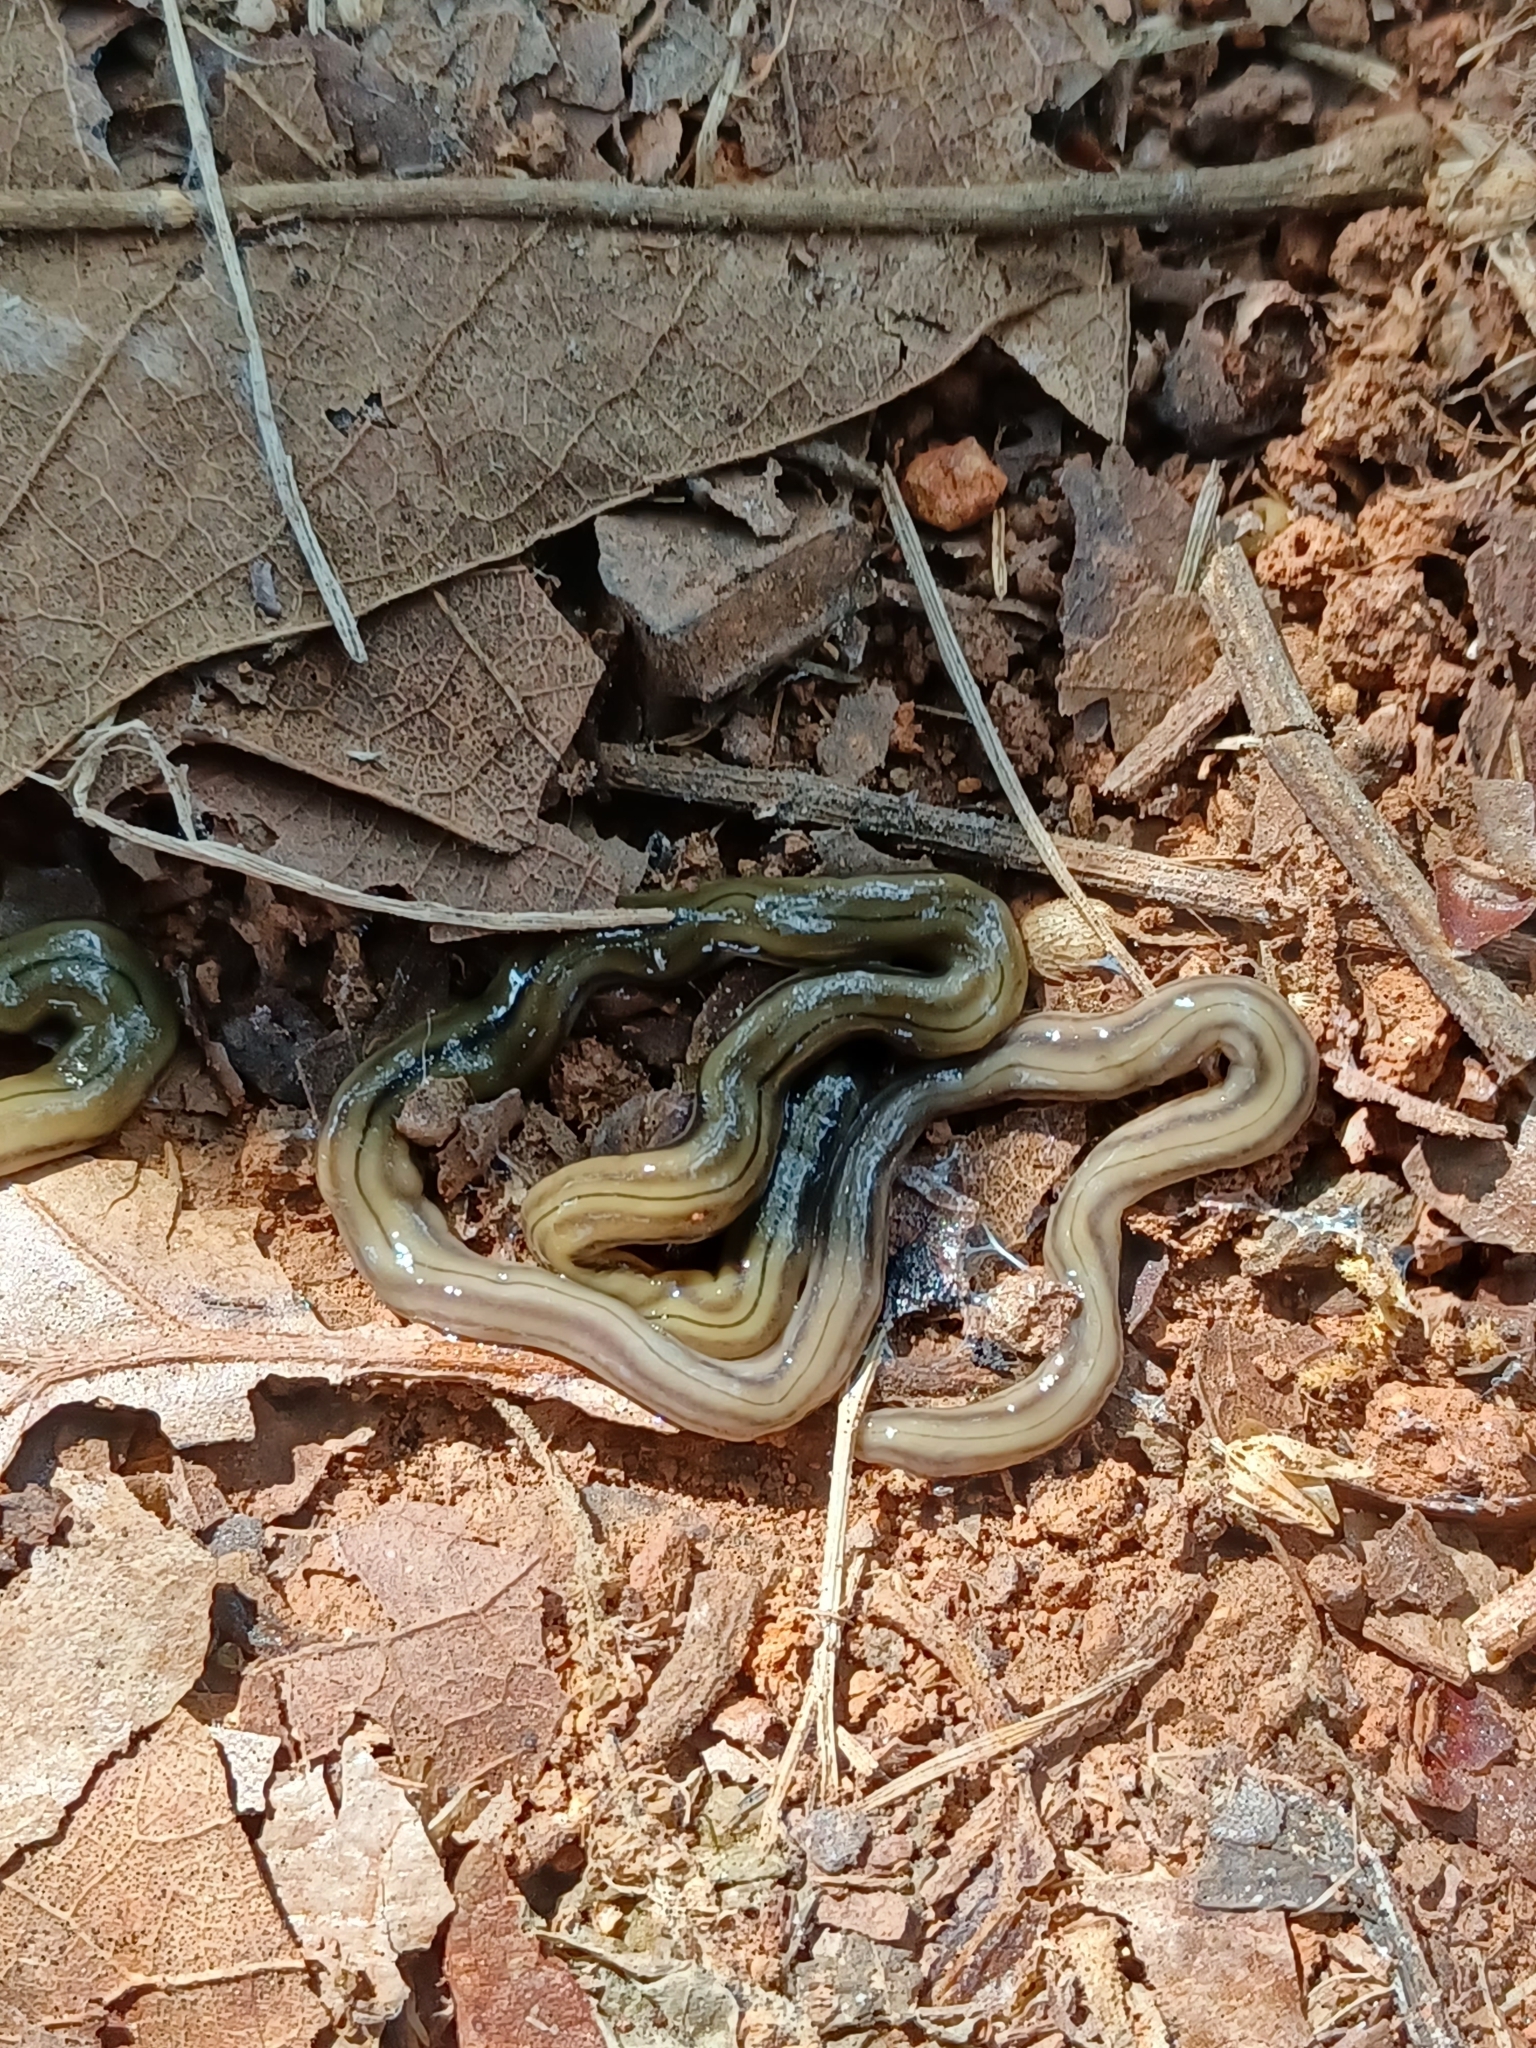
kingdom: Animalia
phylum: Platyhelminthes
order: Tricladida
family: Geoplanidae
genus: Bipalium
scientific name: Bipalium kewense
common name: Hammerhead flatworm
